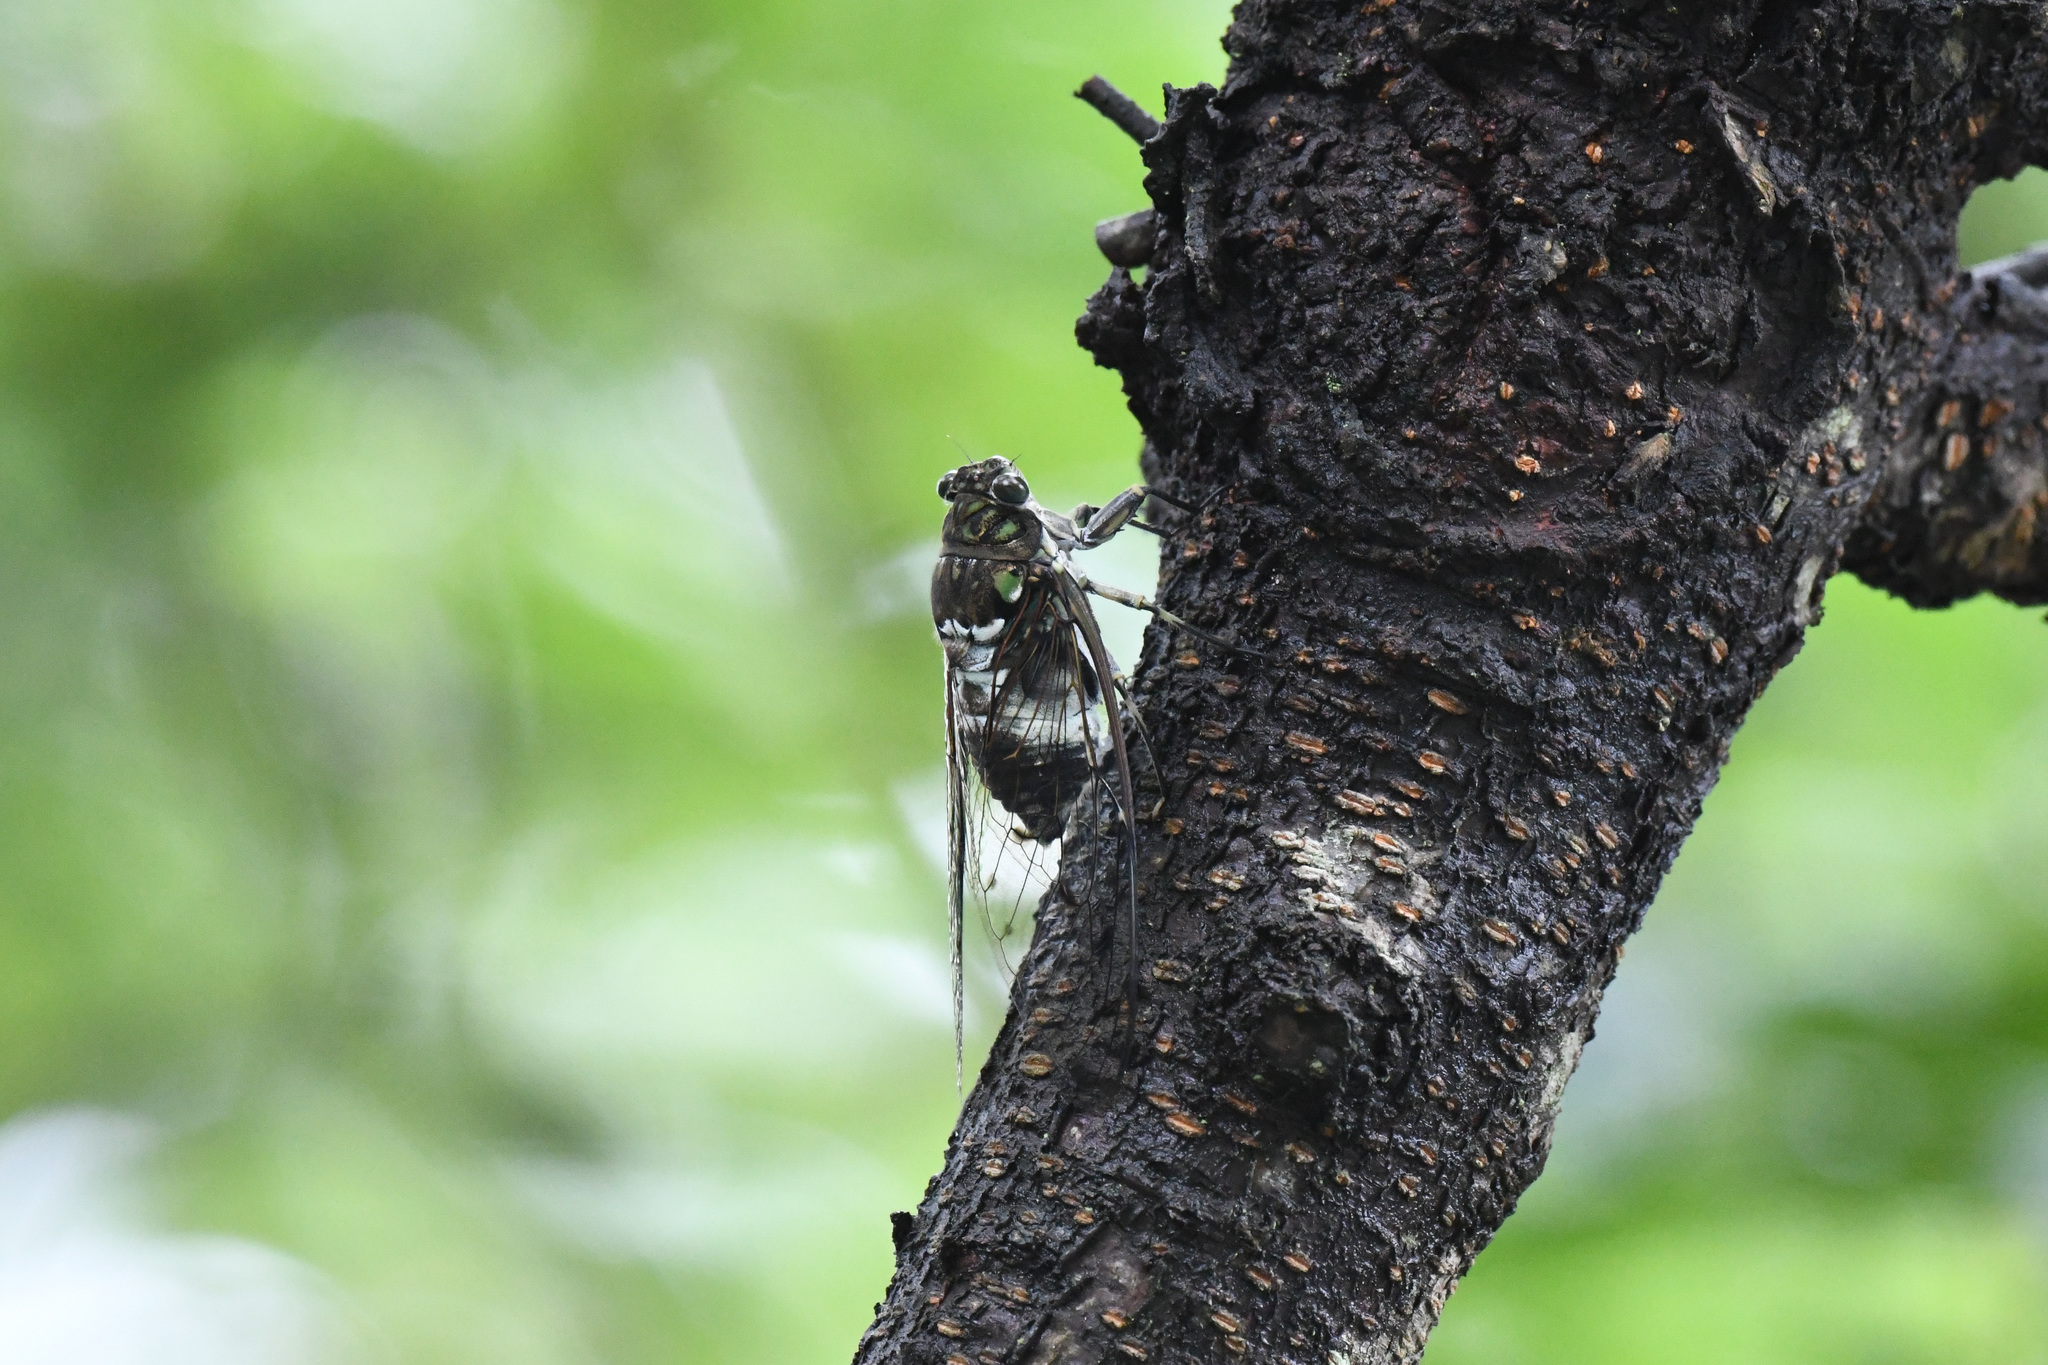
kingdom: Animalia
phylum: Arthropoda
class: Insecta
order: Hemiptera
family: Cicadidae
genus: Hyalessa
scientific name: Hyalessa maculaticollis
